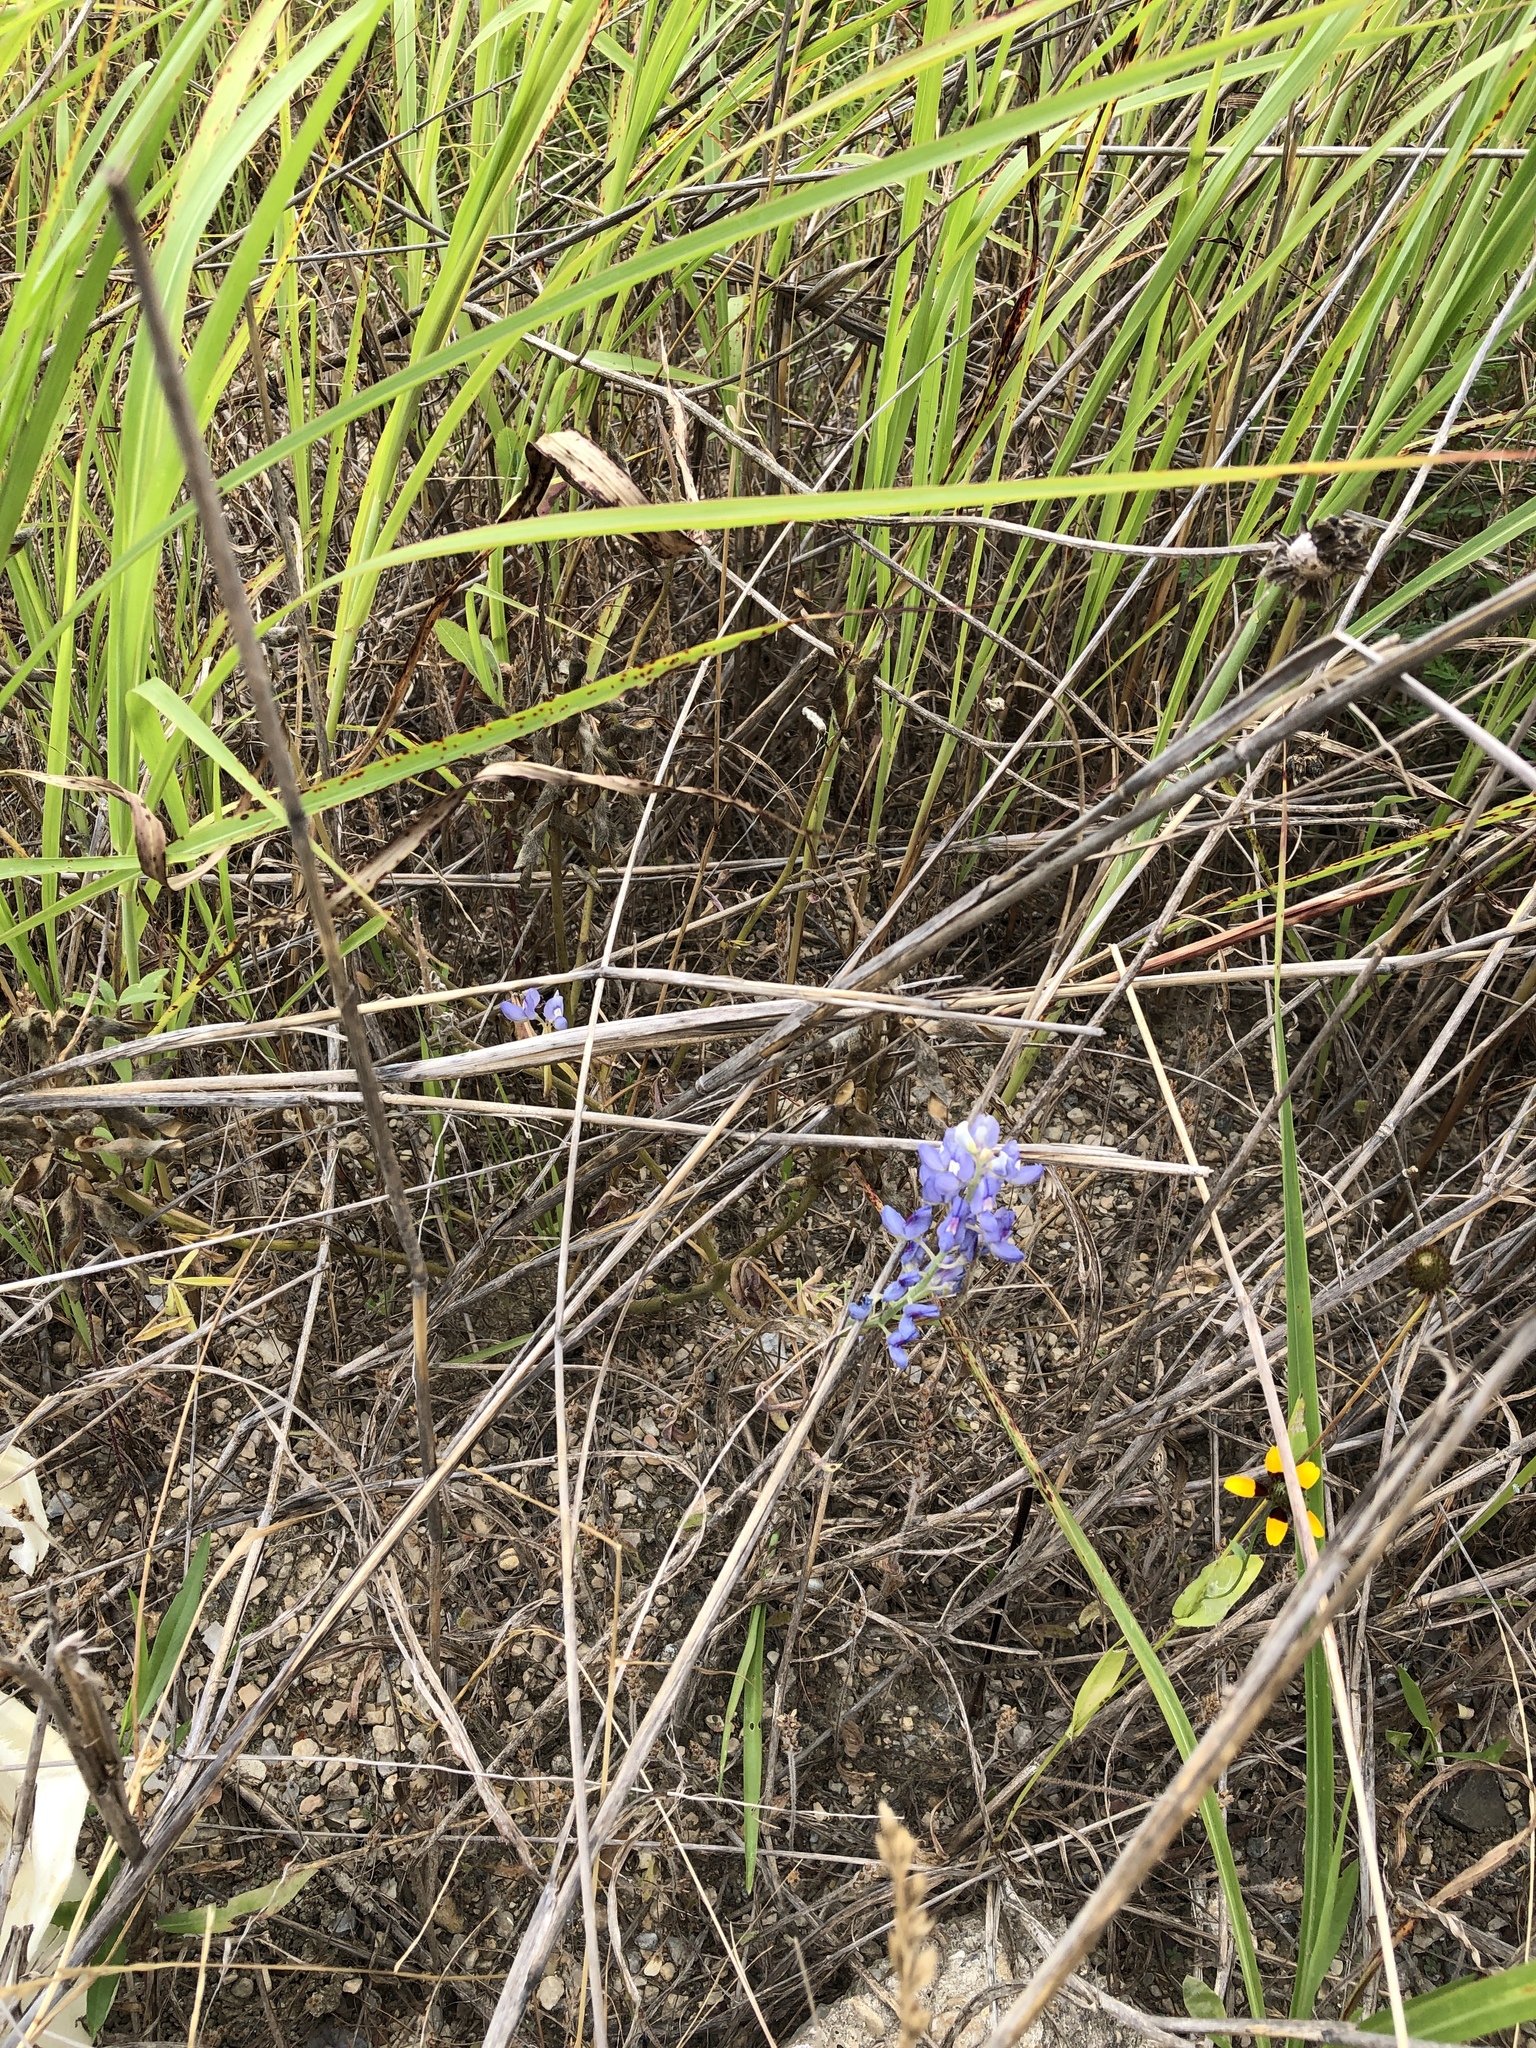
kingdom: Plantae
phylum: Tracheophyta
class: Magnoliopsida
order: Fabales
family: Fabaceae
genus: Lupinus
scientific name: Lupinus texensis
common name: Texas bluebonnet
